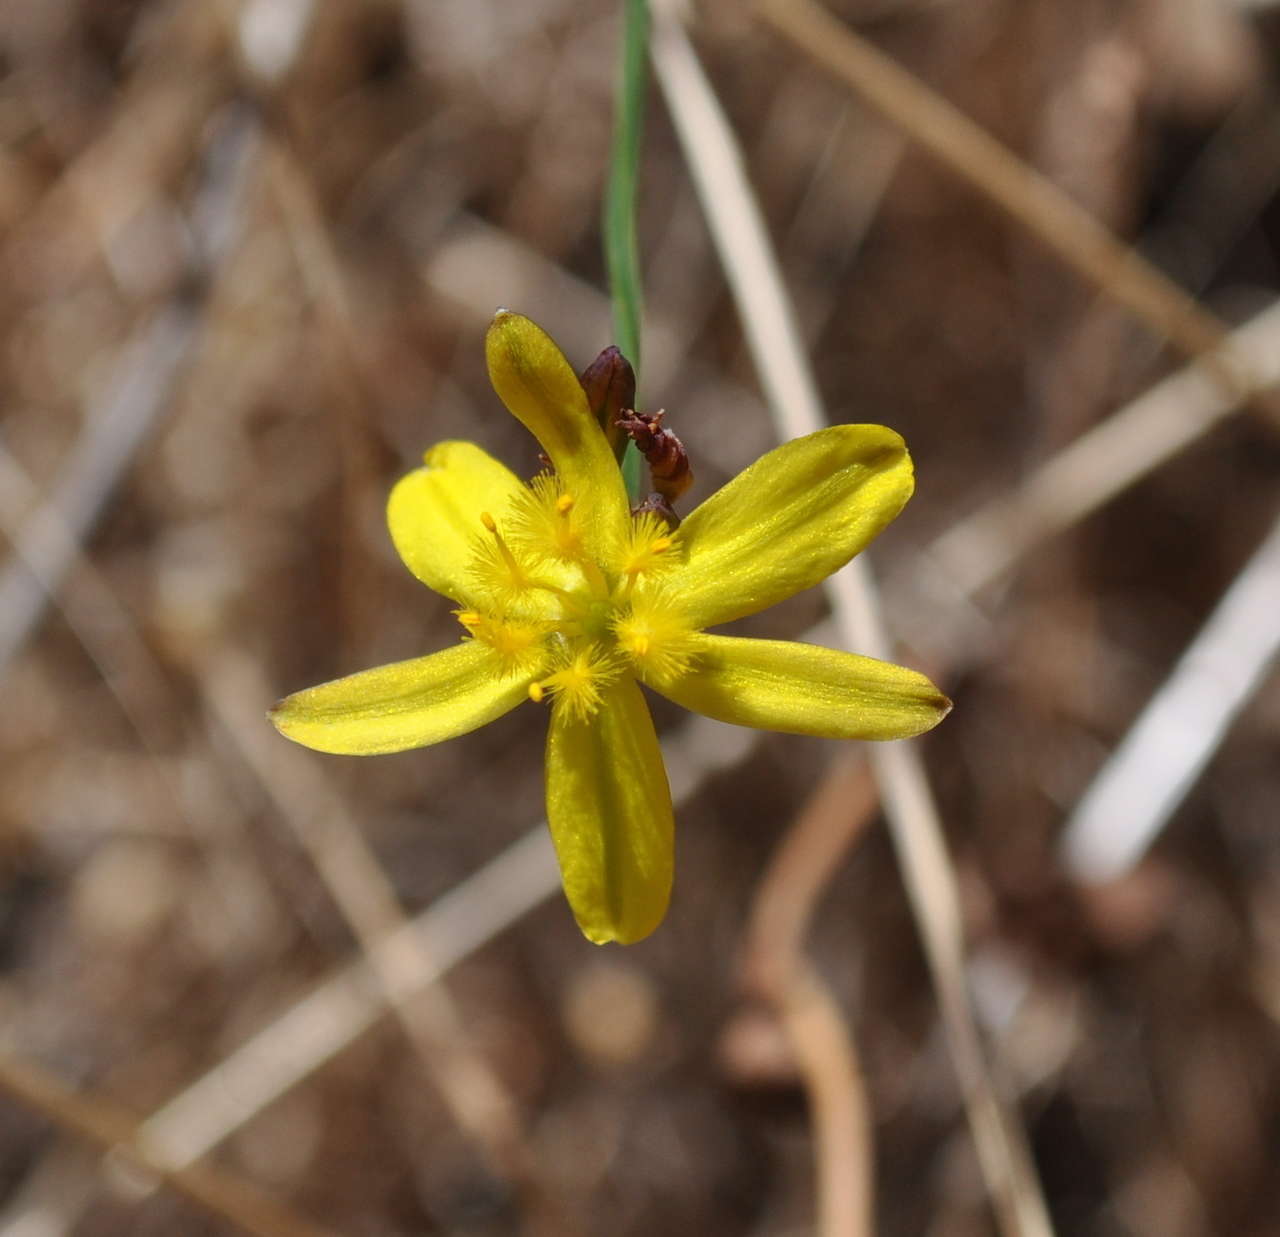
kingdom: Plantae
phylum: Tracheophyta
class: Liliopsida
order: Asparagales
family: Asphodelaceae
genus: Tricoryne
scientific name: Tricoryne elatior
